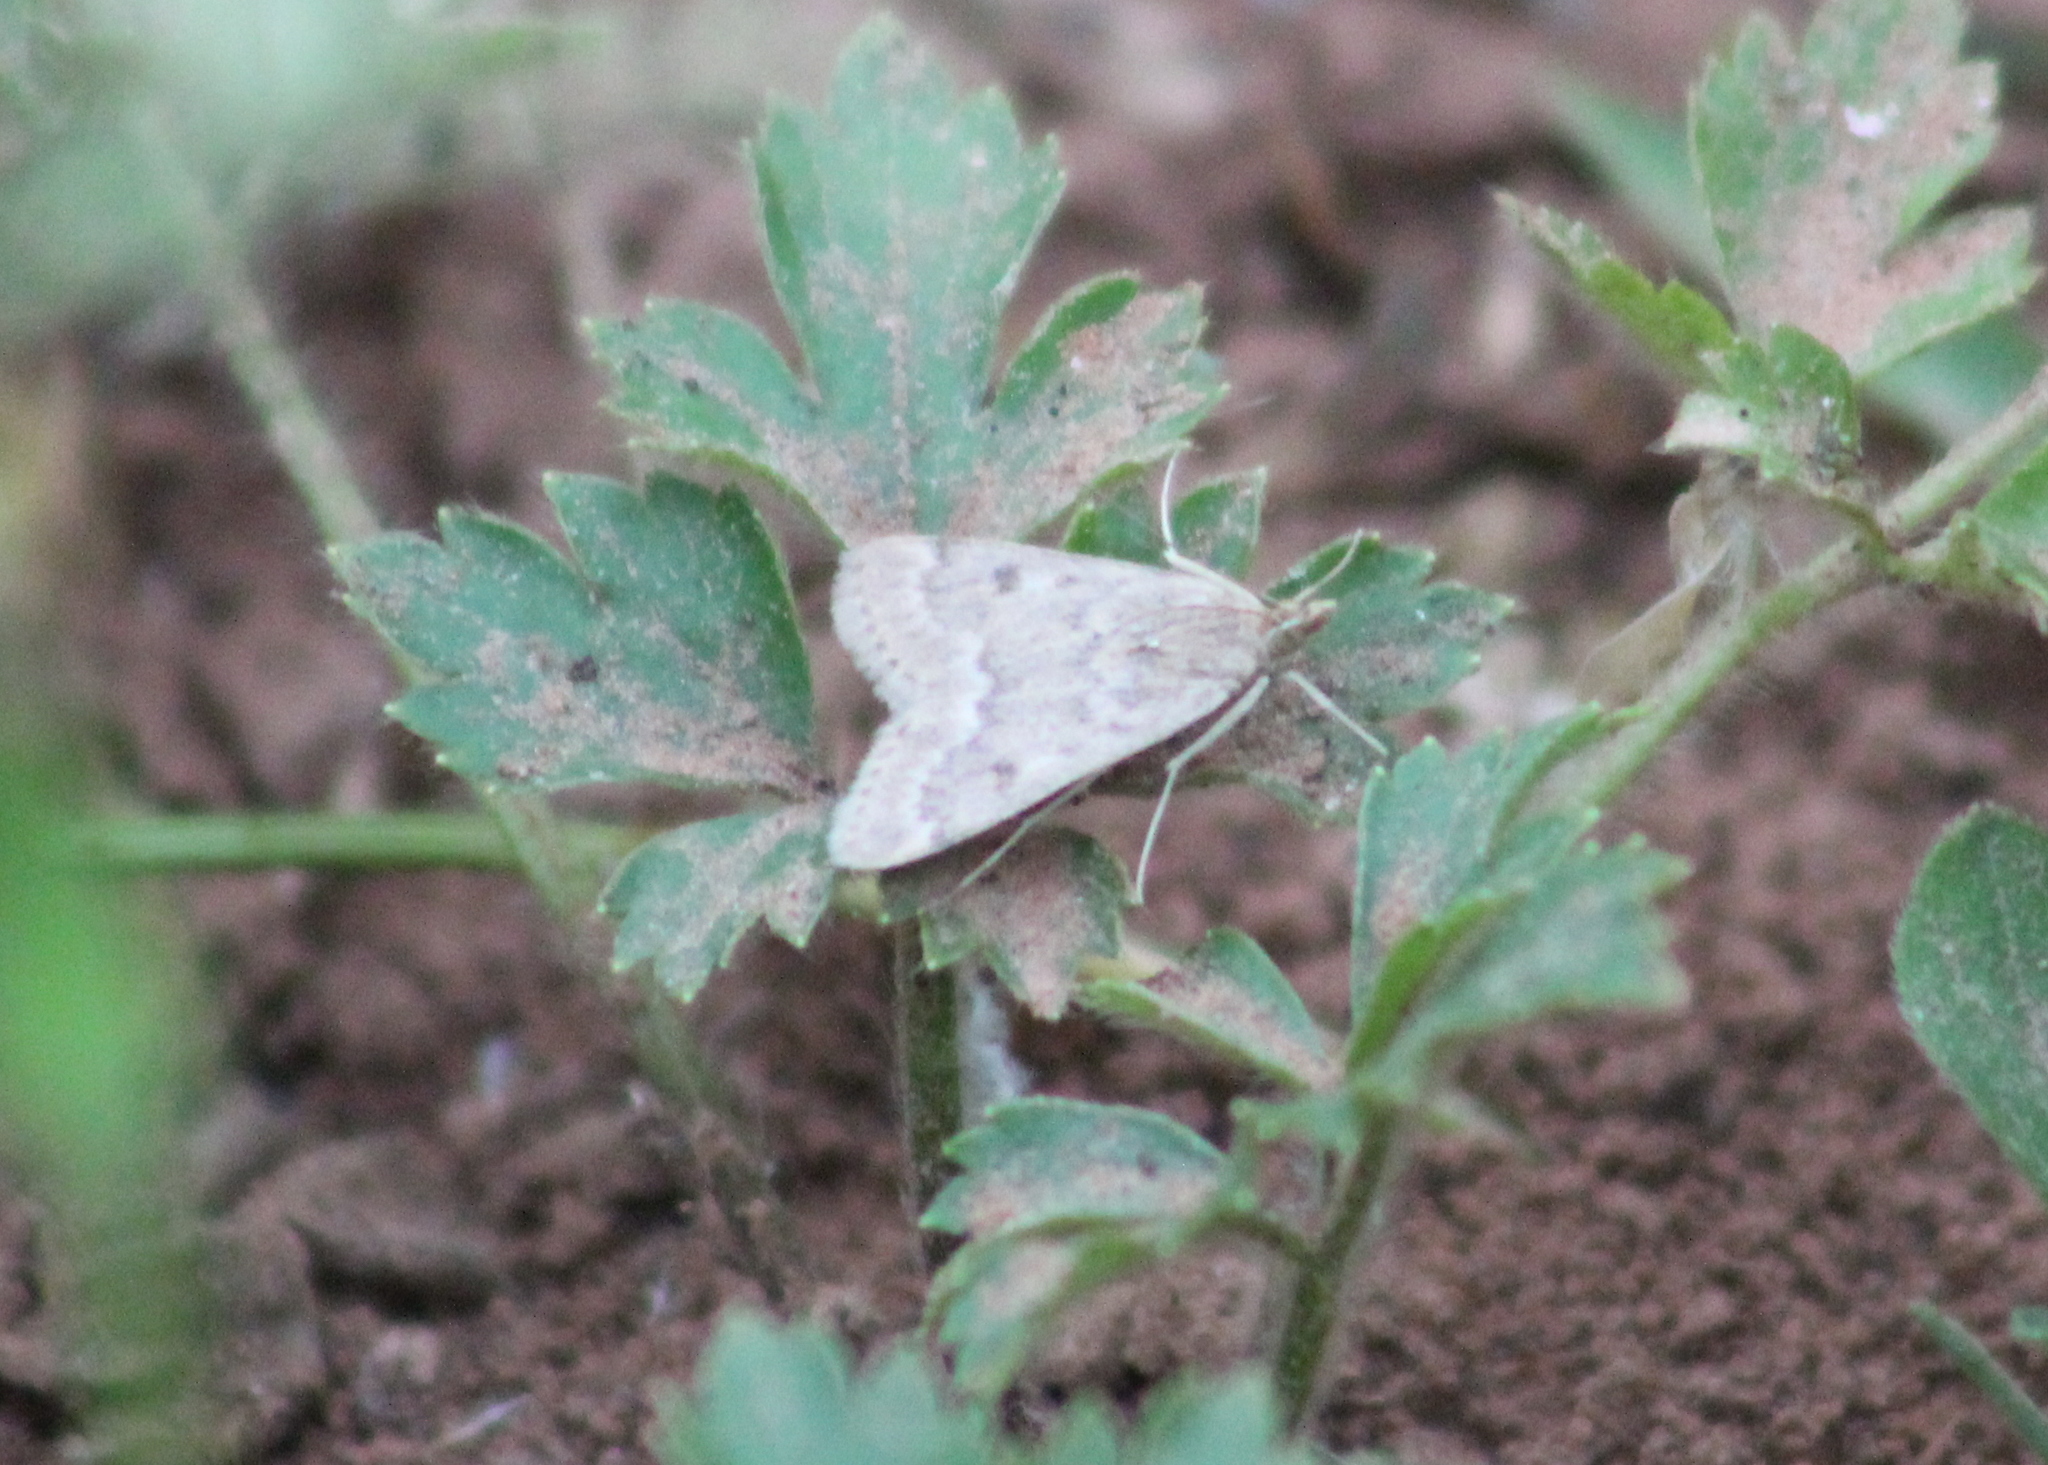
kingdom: Animalia
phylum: Arthropoda
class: Insecta
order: Lepidoptera
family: Crambidae
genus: Achyra
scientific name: Achyra rantalis
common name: Garden webworm
